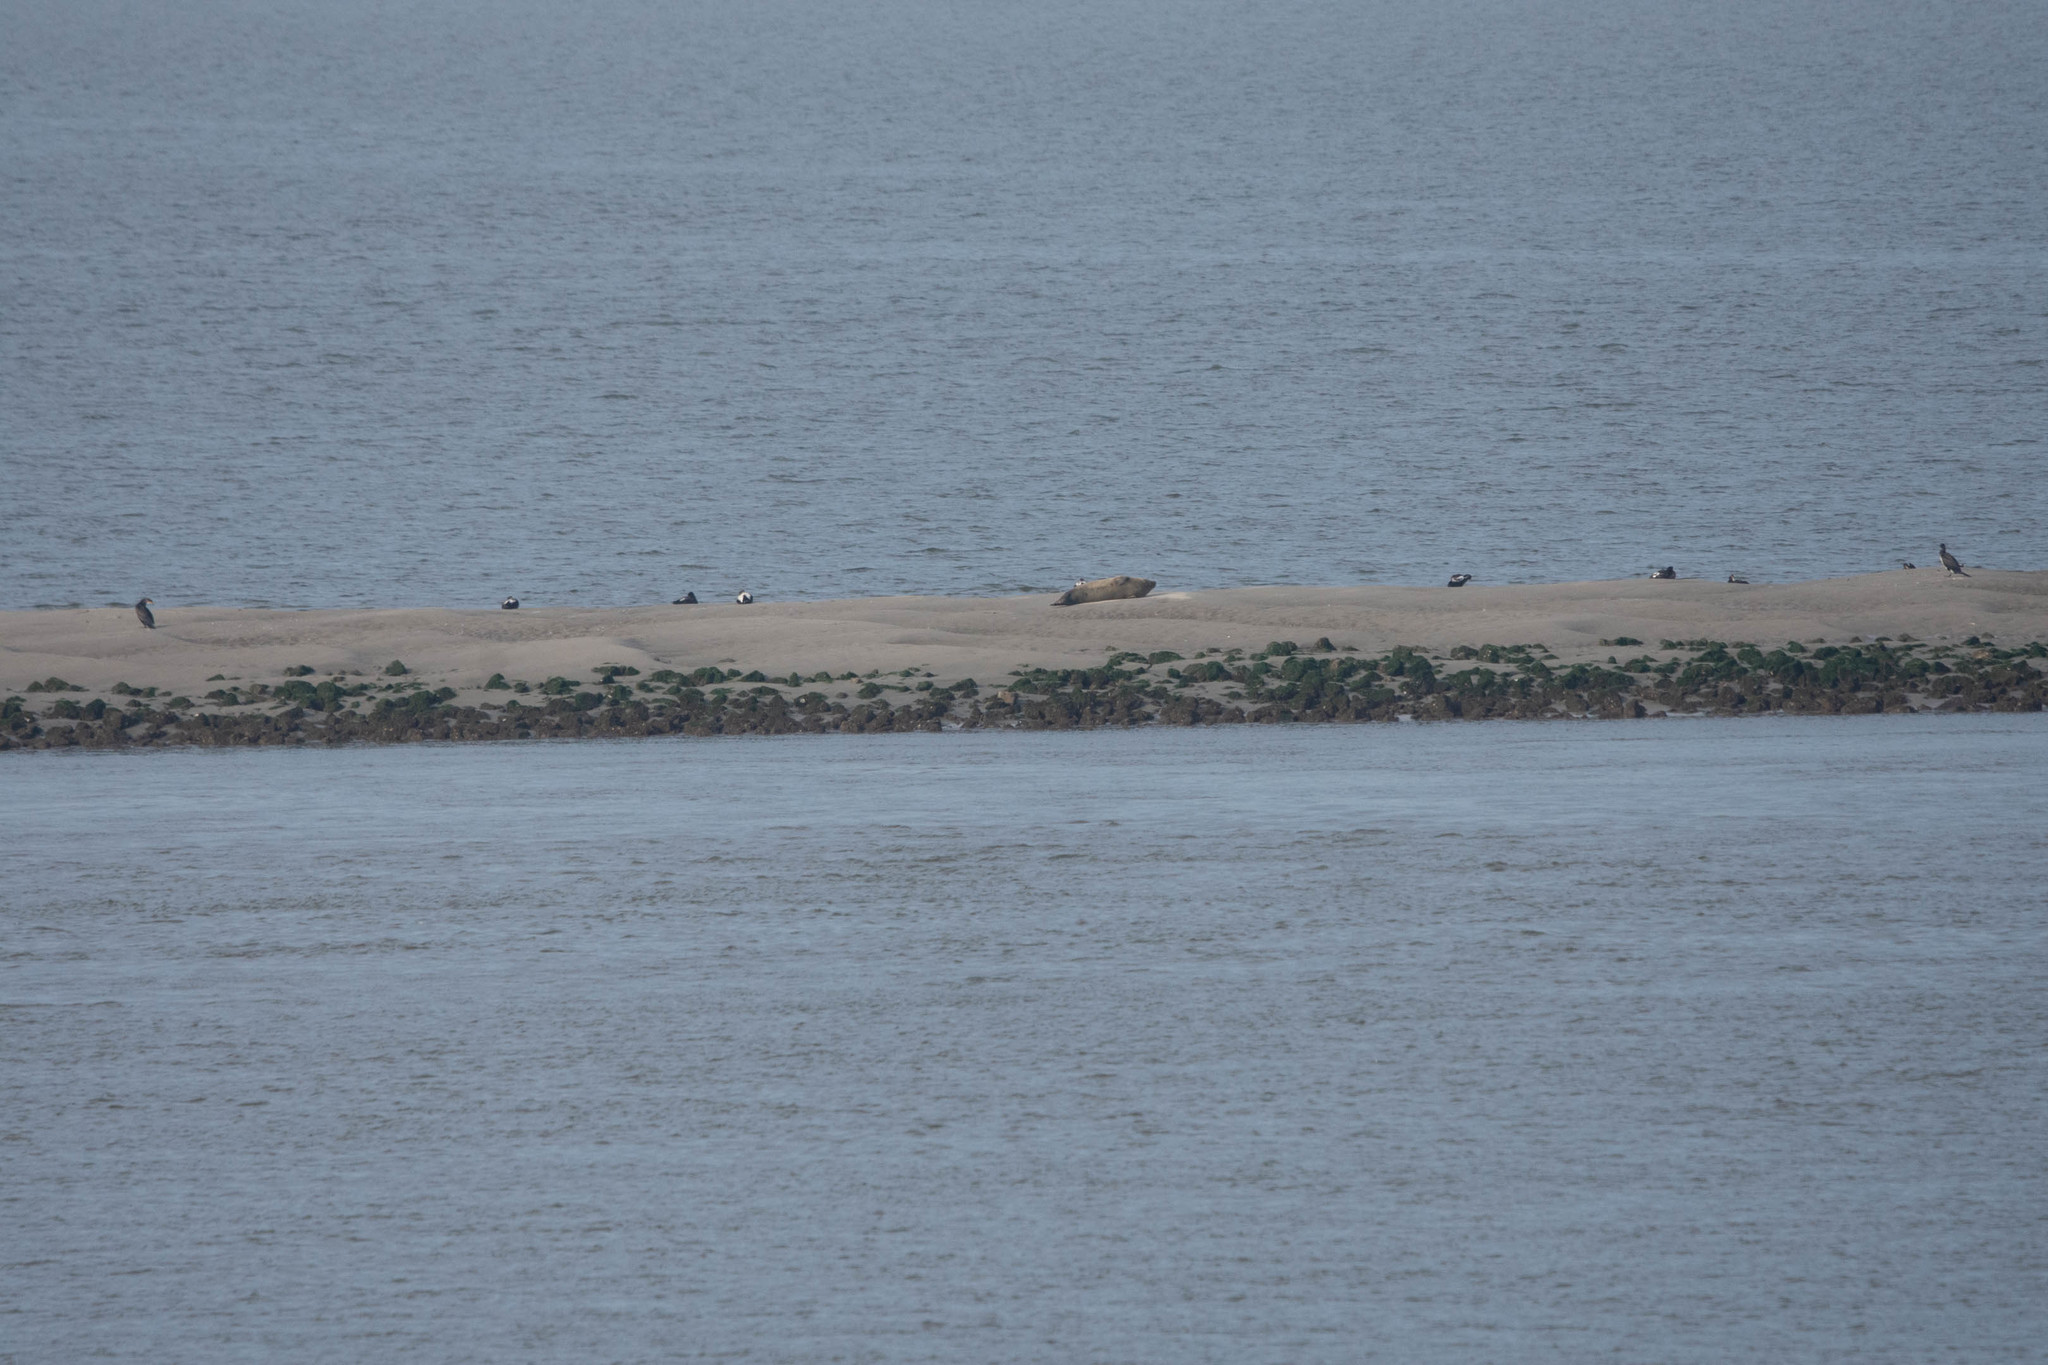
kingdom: Animalia
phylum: Chordata
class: Mammalia
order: Carnivora
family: Phocidae
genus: Phoca
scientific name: Phoca vitulina
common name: Harbor seal
